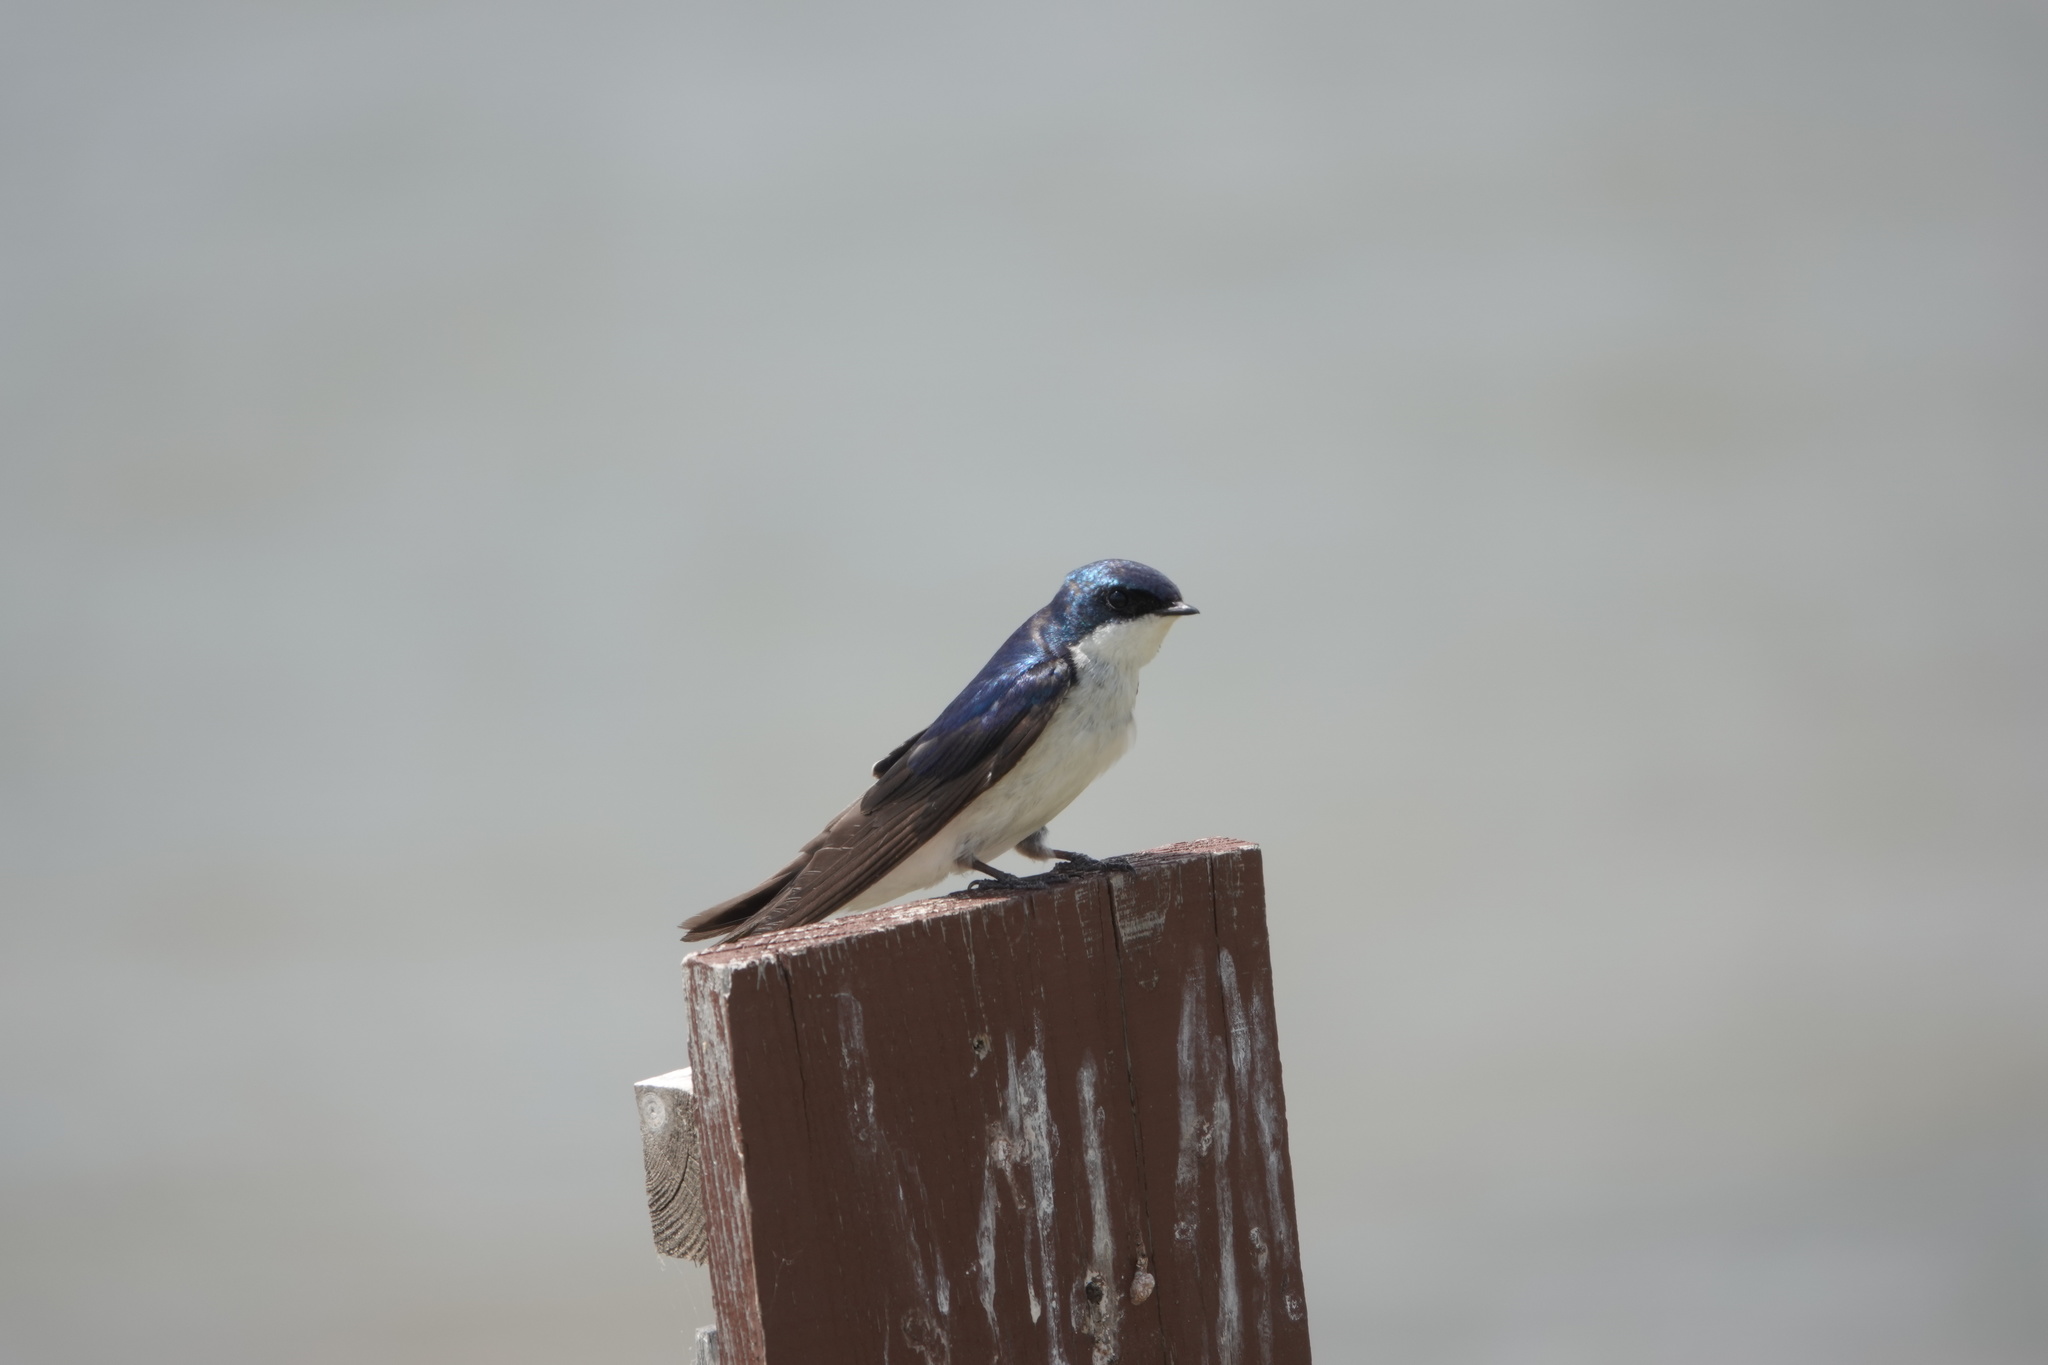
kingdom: Animalia
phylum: Chordata
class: Aves
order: Passeriformes
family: Hirundinidae
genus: Tachycineta
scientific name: Tachycineta bicolor
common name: Tree swallow
